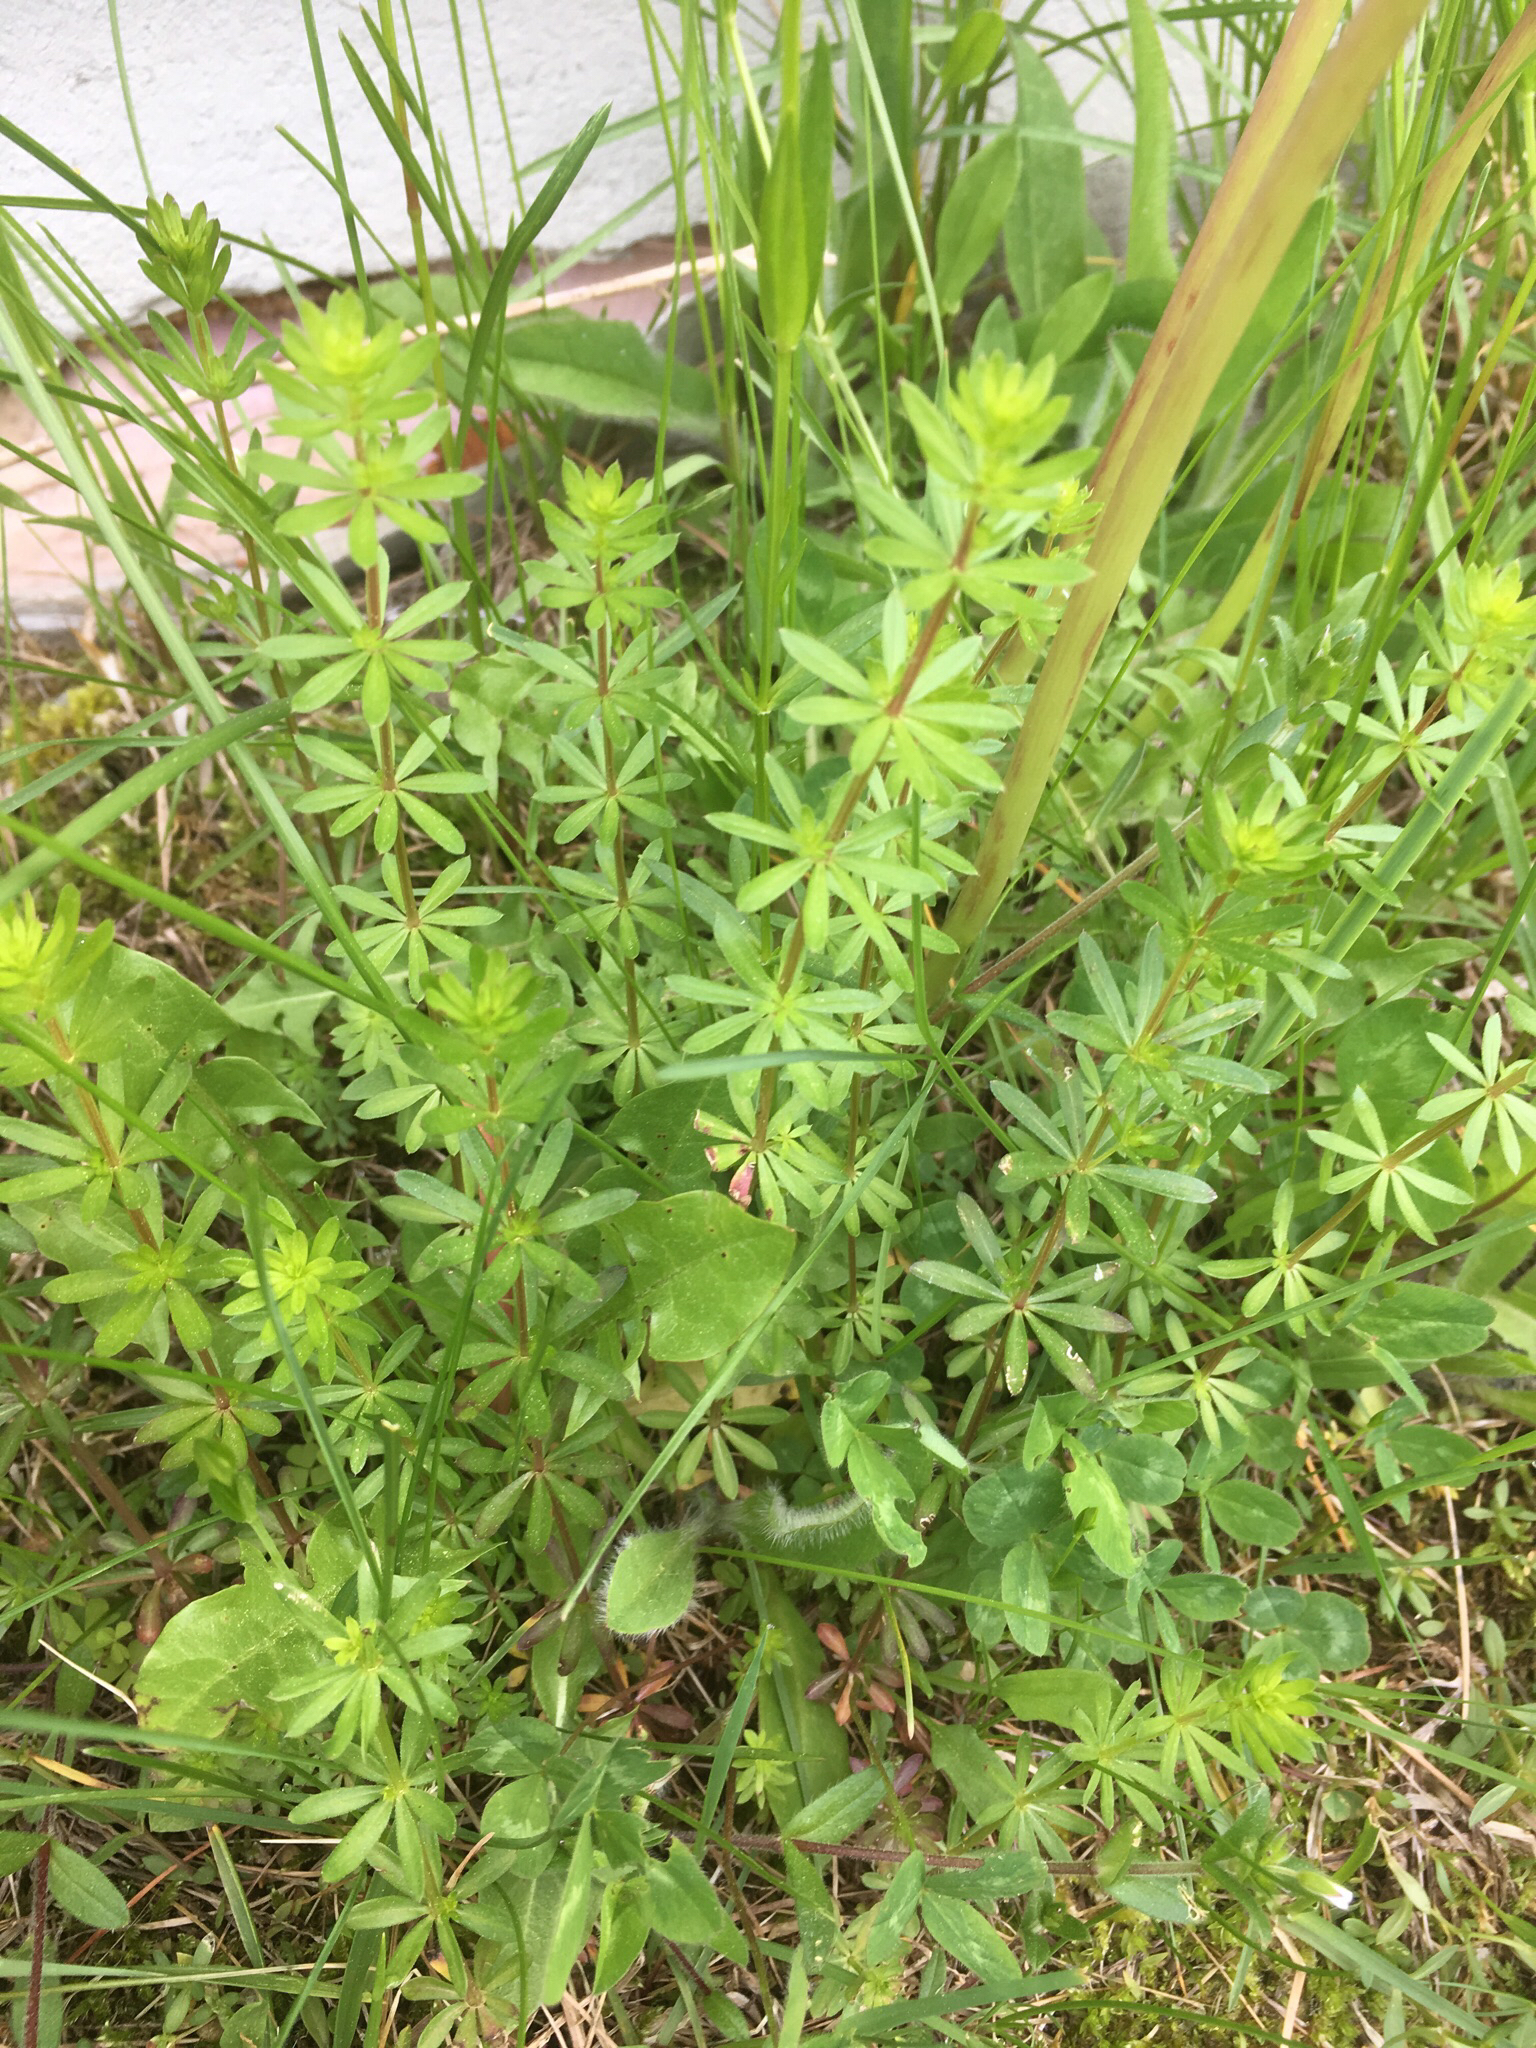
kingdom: Plantae
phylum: Tracheophyta
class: Magnoliopsida
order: Gentianales
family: Rubiaceae
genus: Galium
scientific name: Galium mollugo
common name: Hedge bedstraw
